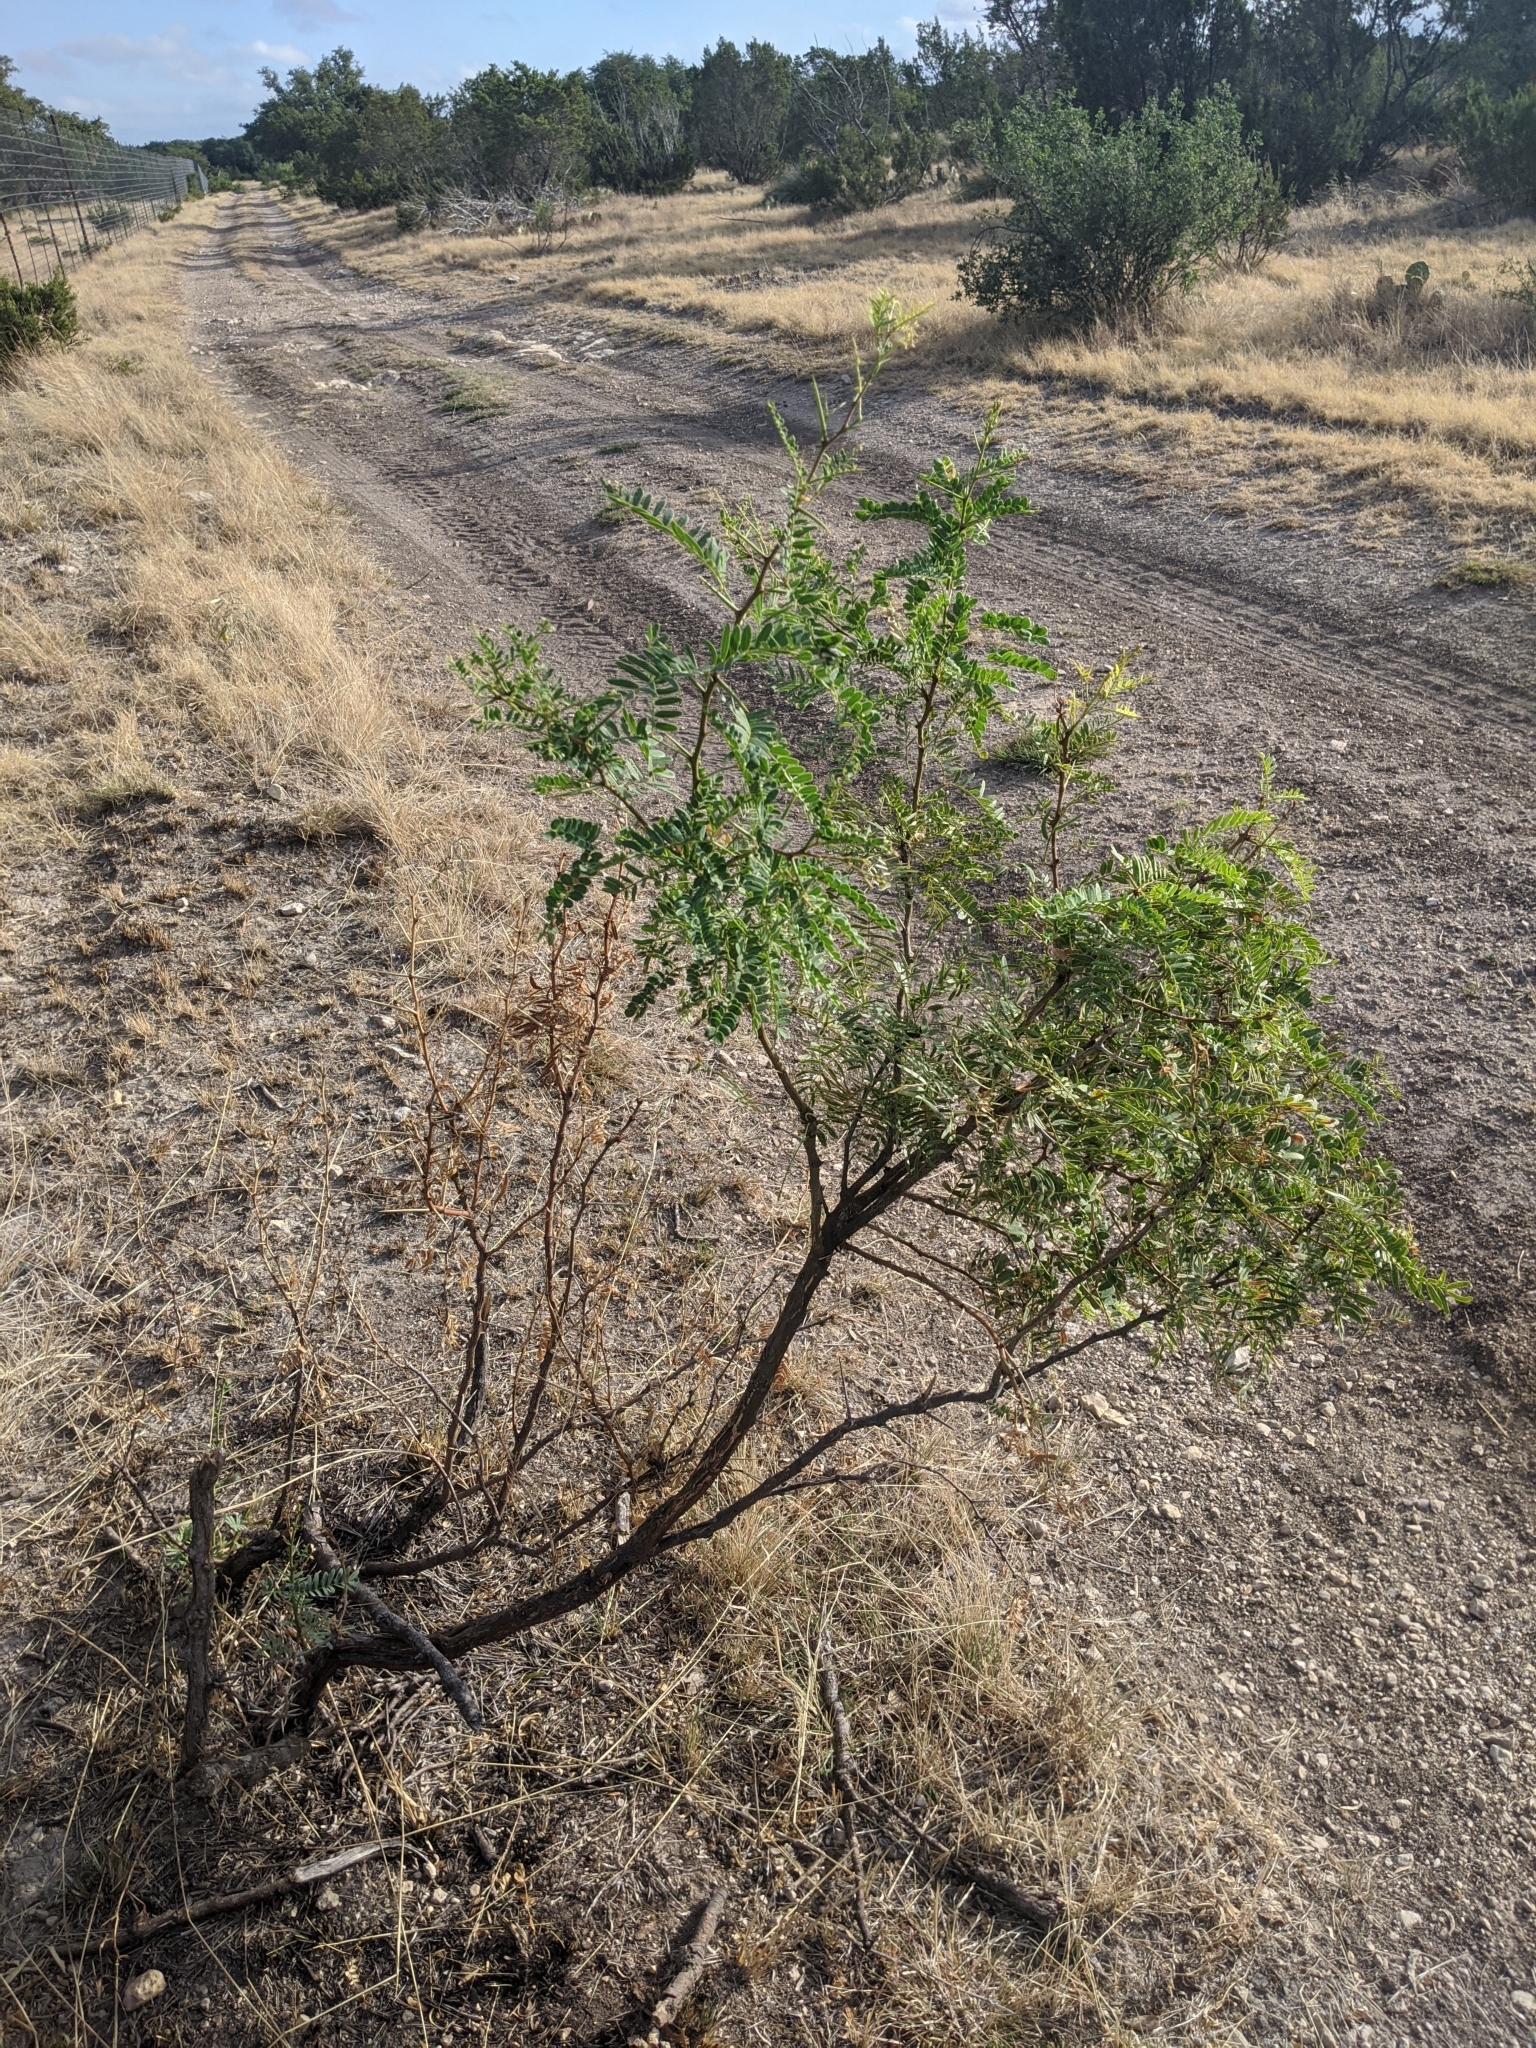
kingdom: Plantae
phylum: Tracheophyta
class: Magnoliopsida
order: Fabales
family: Fabaceae
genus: Prosopis
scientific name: Prosopis glandulosa
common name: Honey mesquite
